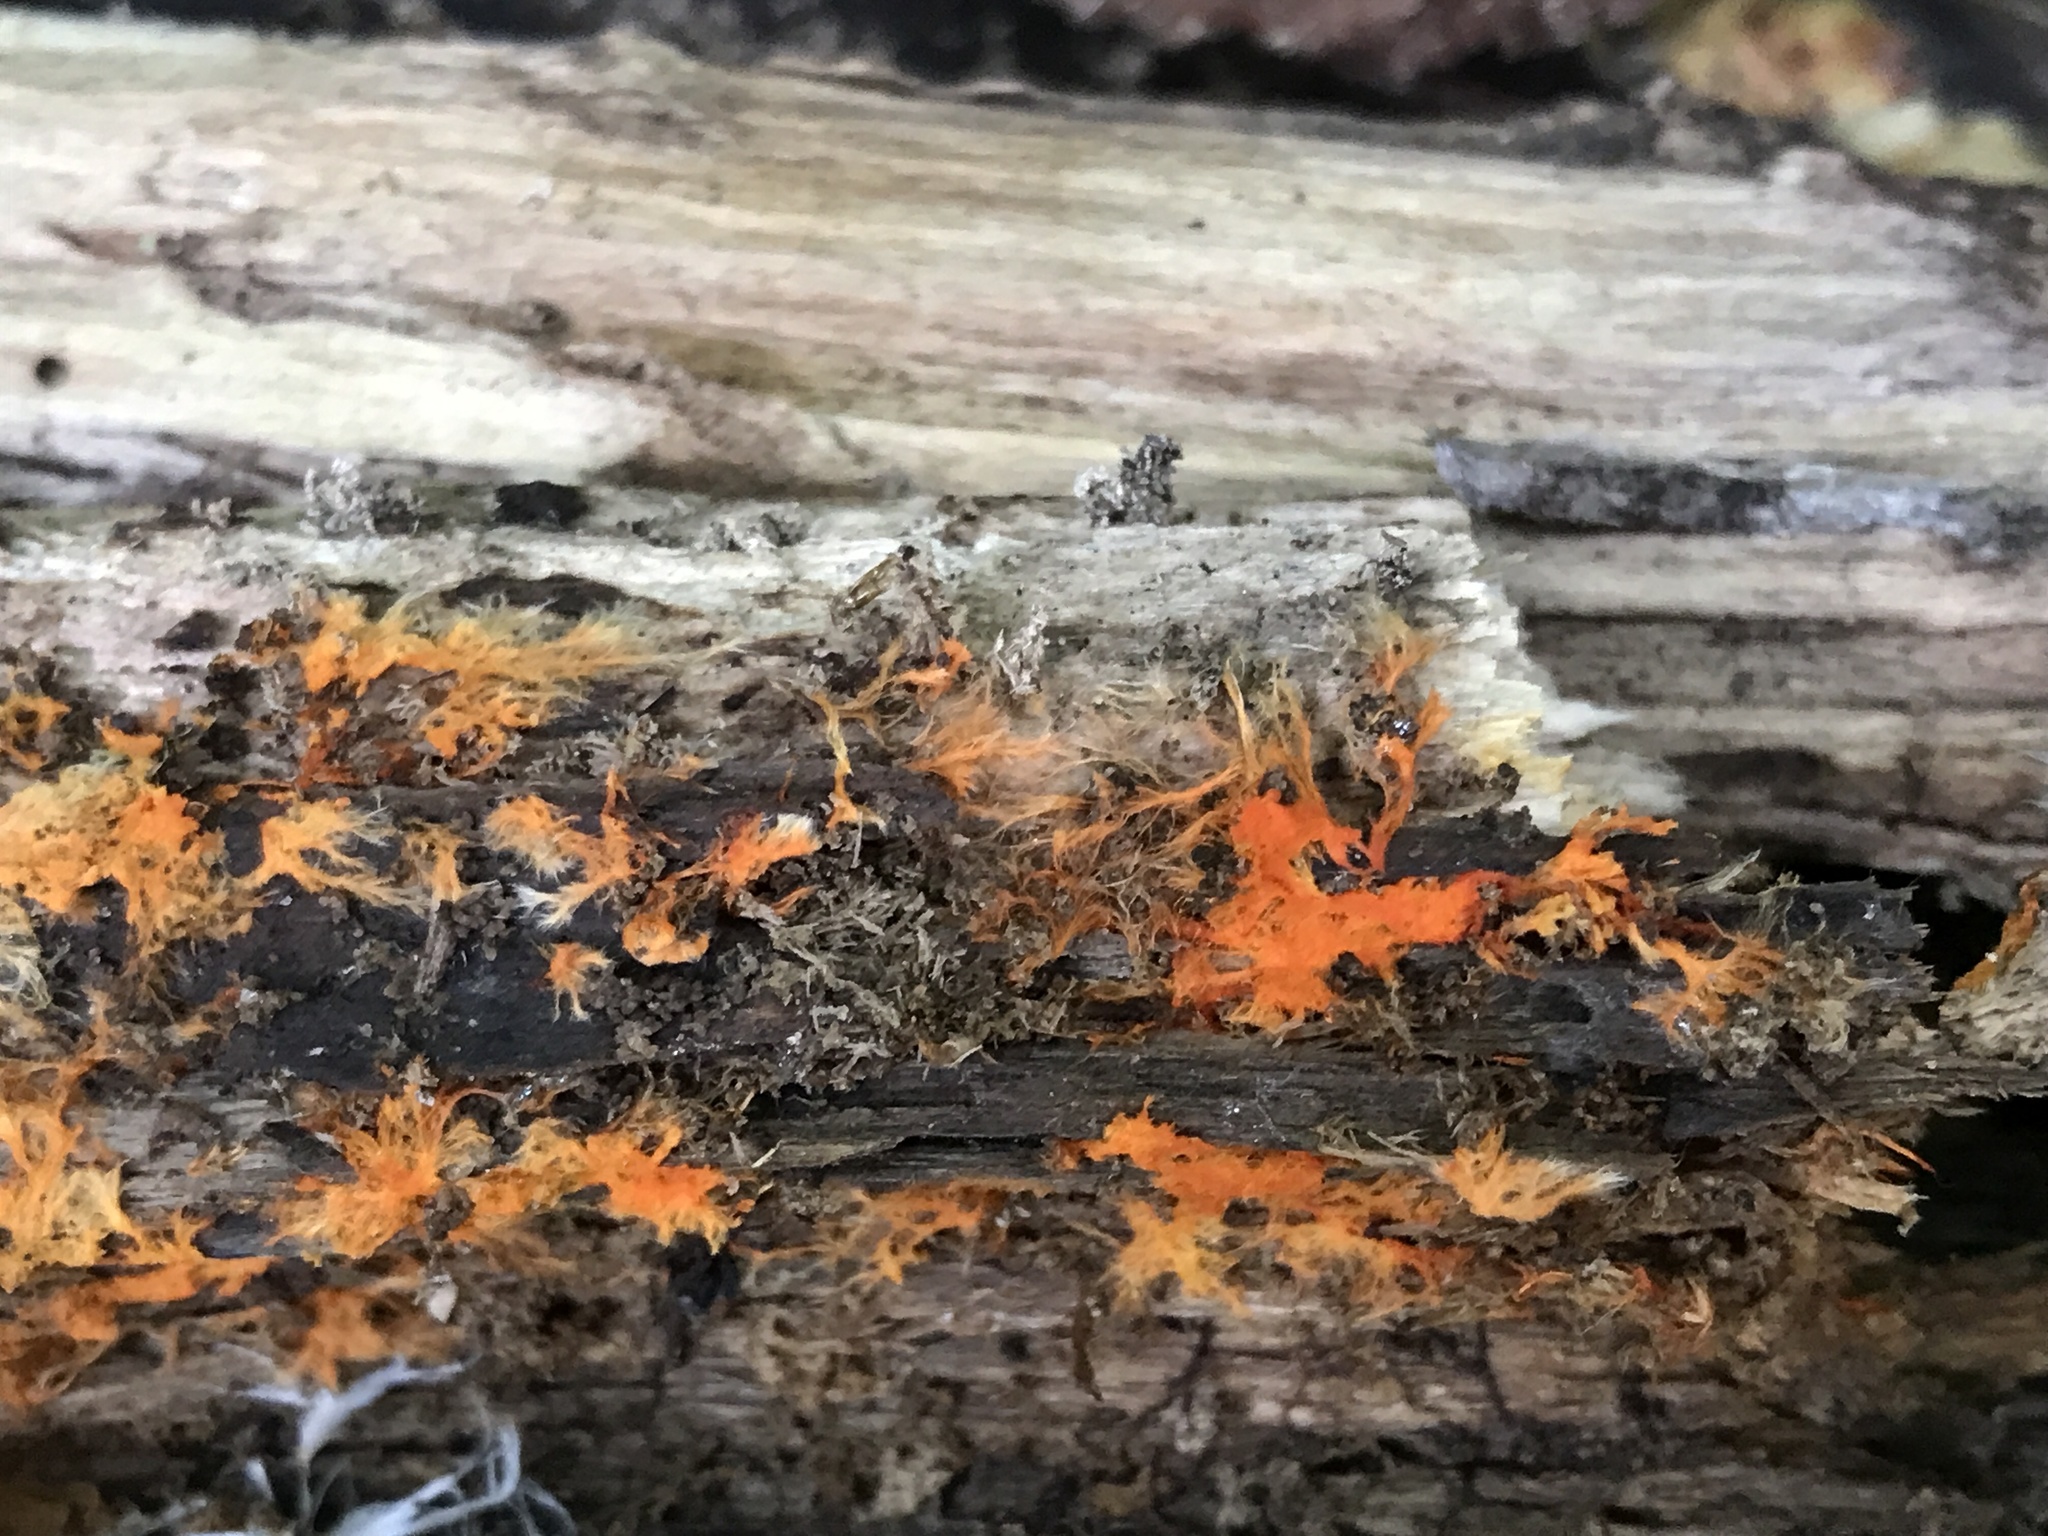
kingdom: Fungi
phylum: Basidiomycota
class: Agaricomycetes
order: Polyporales
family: Meruliaceae
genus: Hydnophlebia
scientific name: Hydnophlebia chrysorhiza
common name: Spreading yellow tooth
